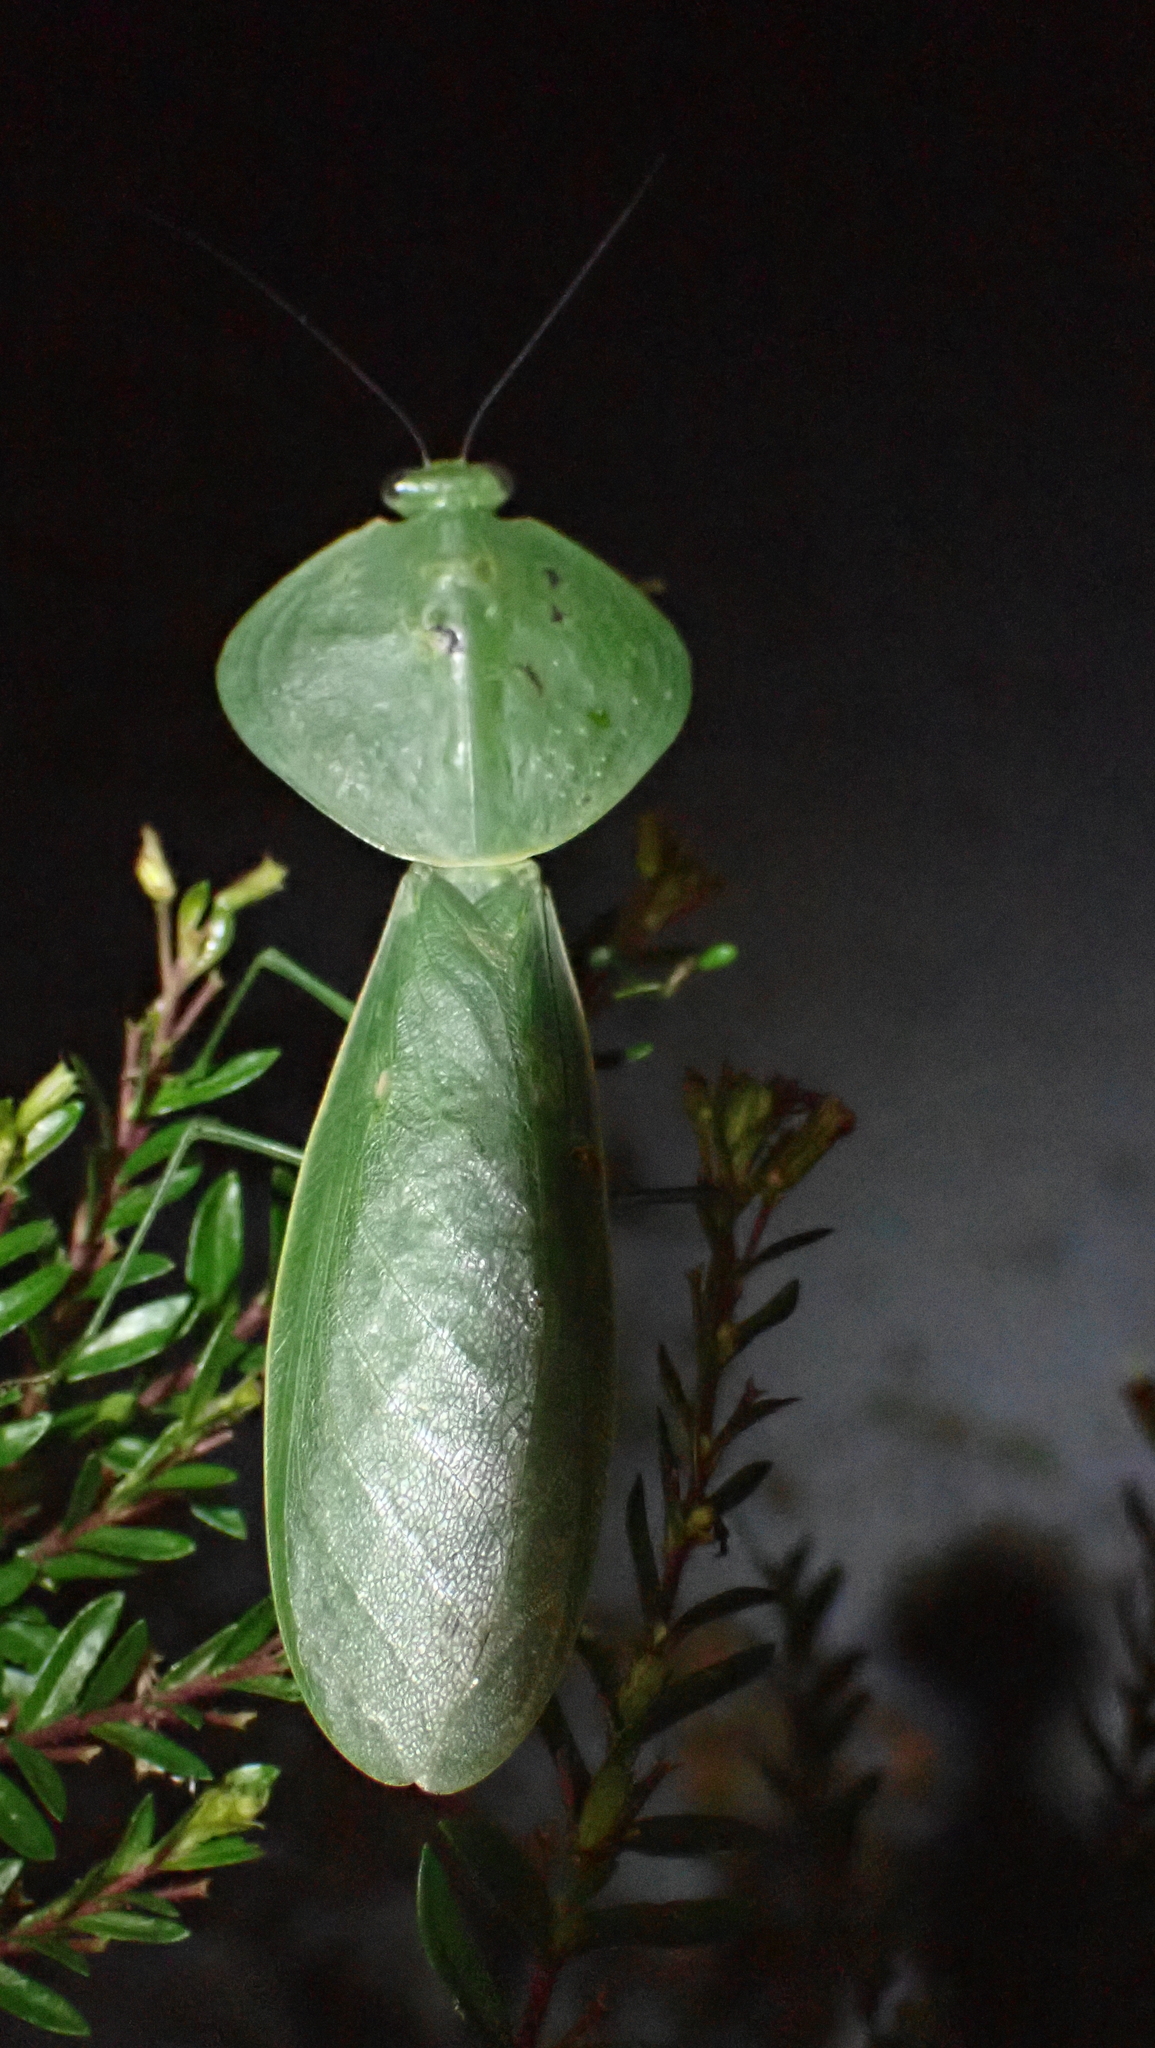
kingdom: Animalia
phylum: Arthropoda
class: Insecta
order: Mantodea
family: Mantidae
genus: Choeradodis
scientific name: Choeradodis rhombicollis
